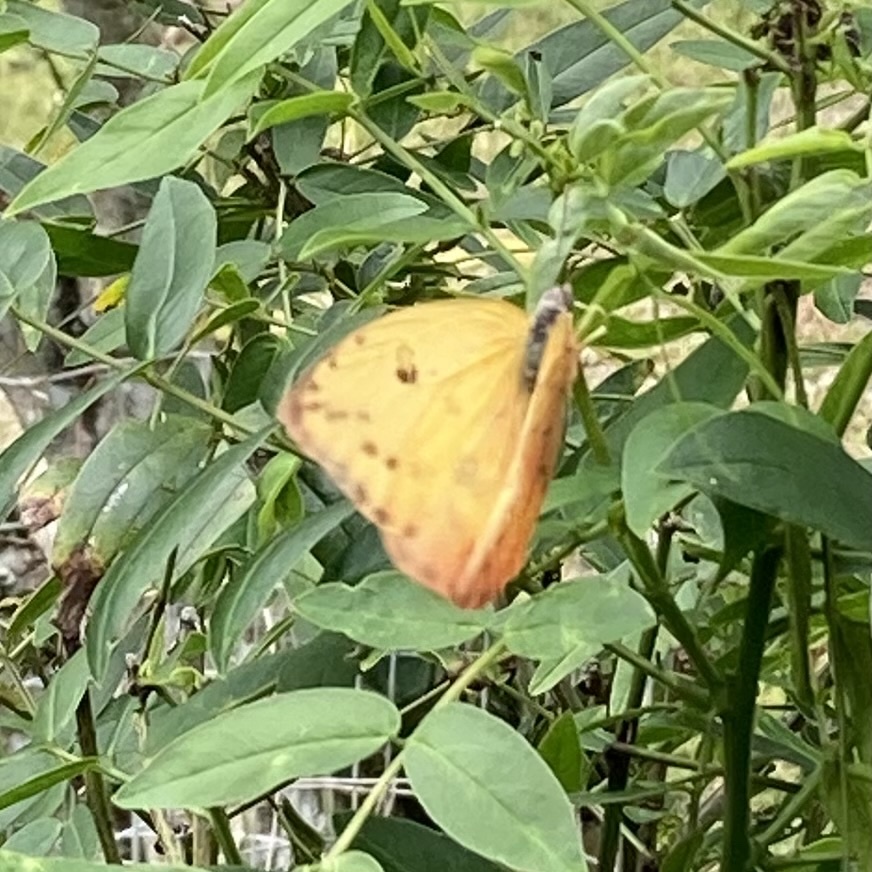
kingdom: Animalia
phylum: Arthropoda
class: Insecta
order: Lepidoptera
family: Pieridae
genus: Phoebis
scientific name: Phoebis philea
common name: Orange-barred giant sulphur
